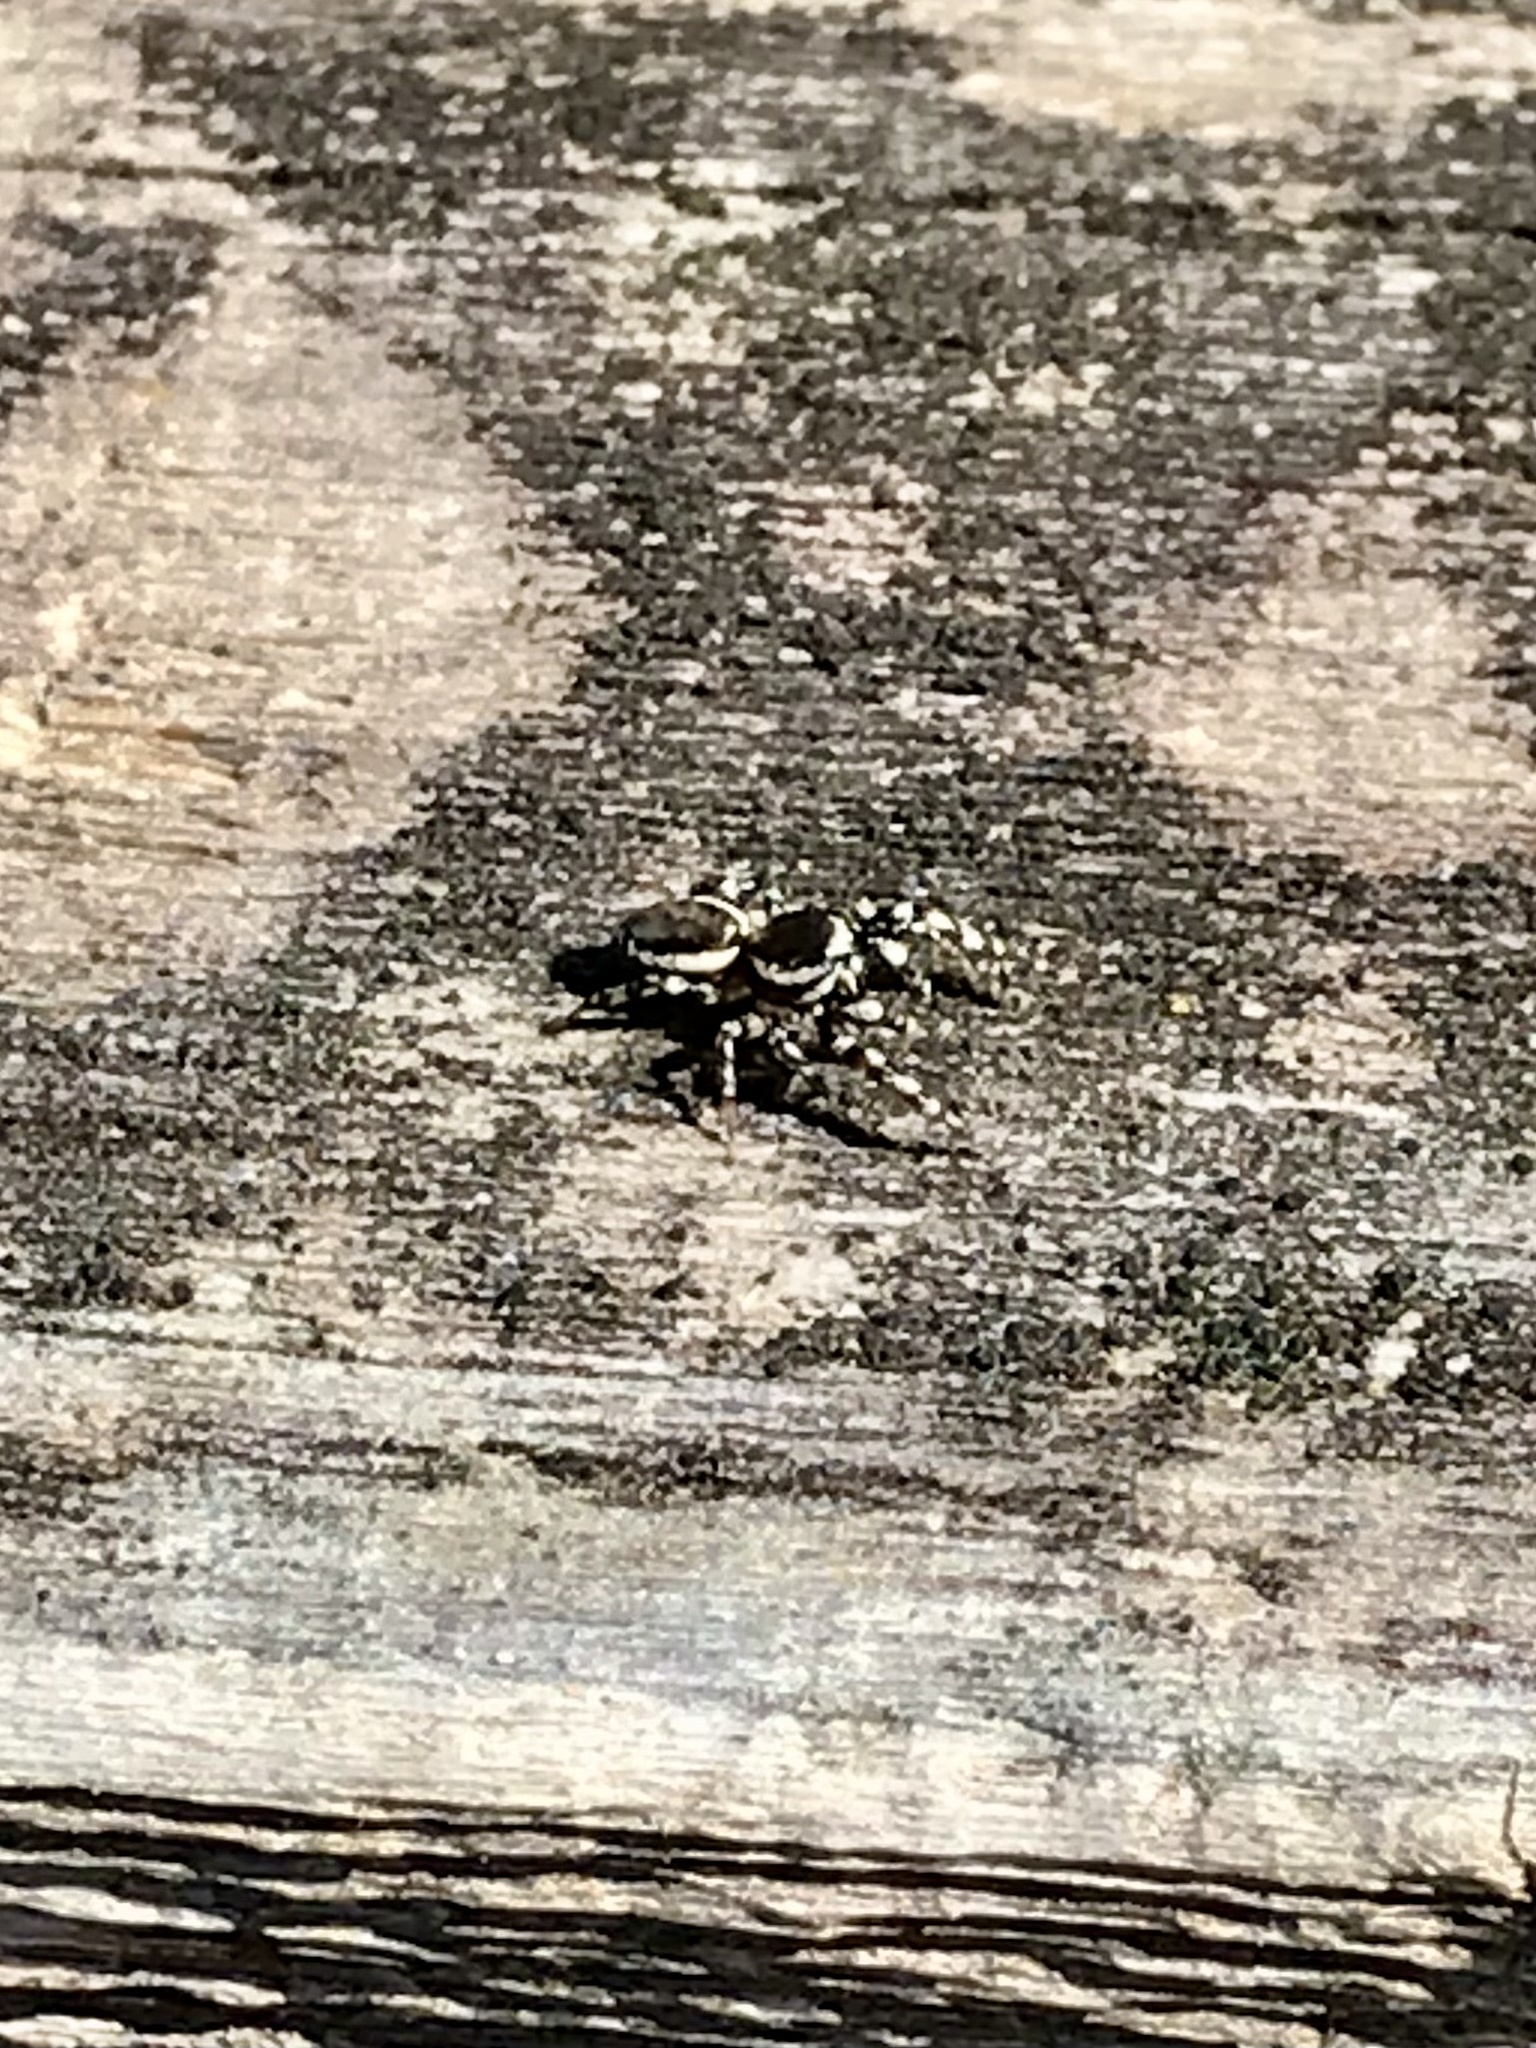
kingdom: Animalia
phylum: Arthropoda
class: Arachnida
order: Araneae
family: Salticidae
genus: Pelegrina
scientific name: Pelegrina proterva
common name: Common white-cheeked jumping spider
